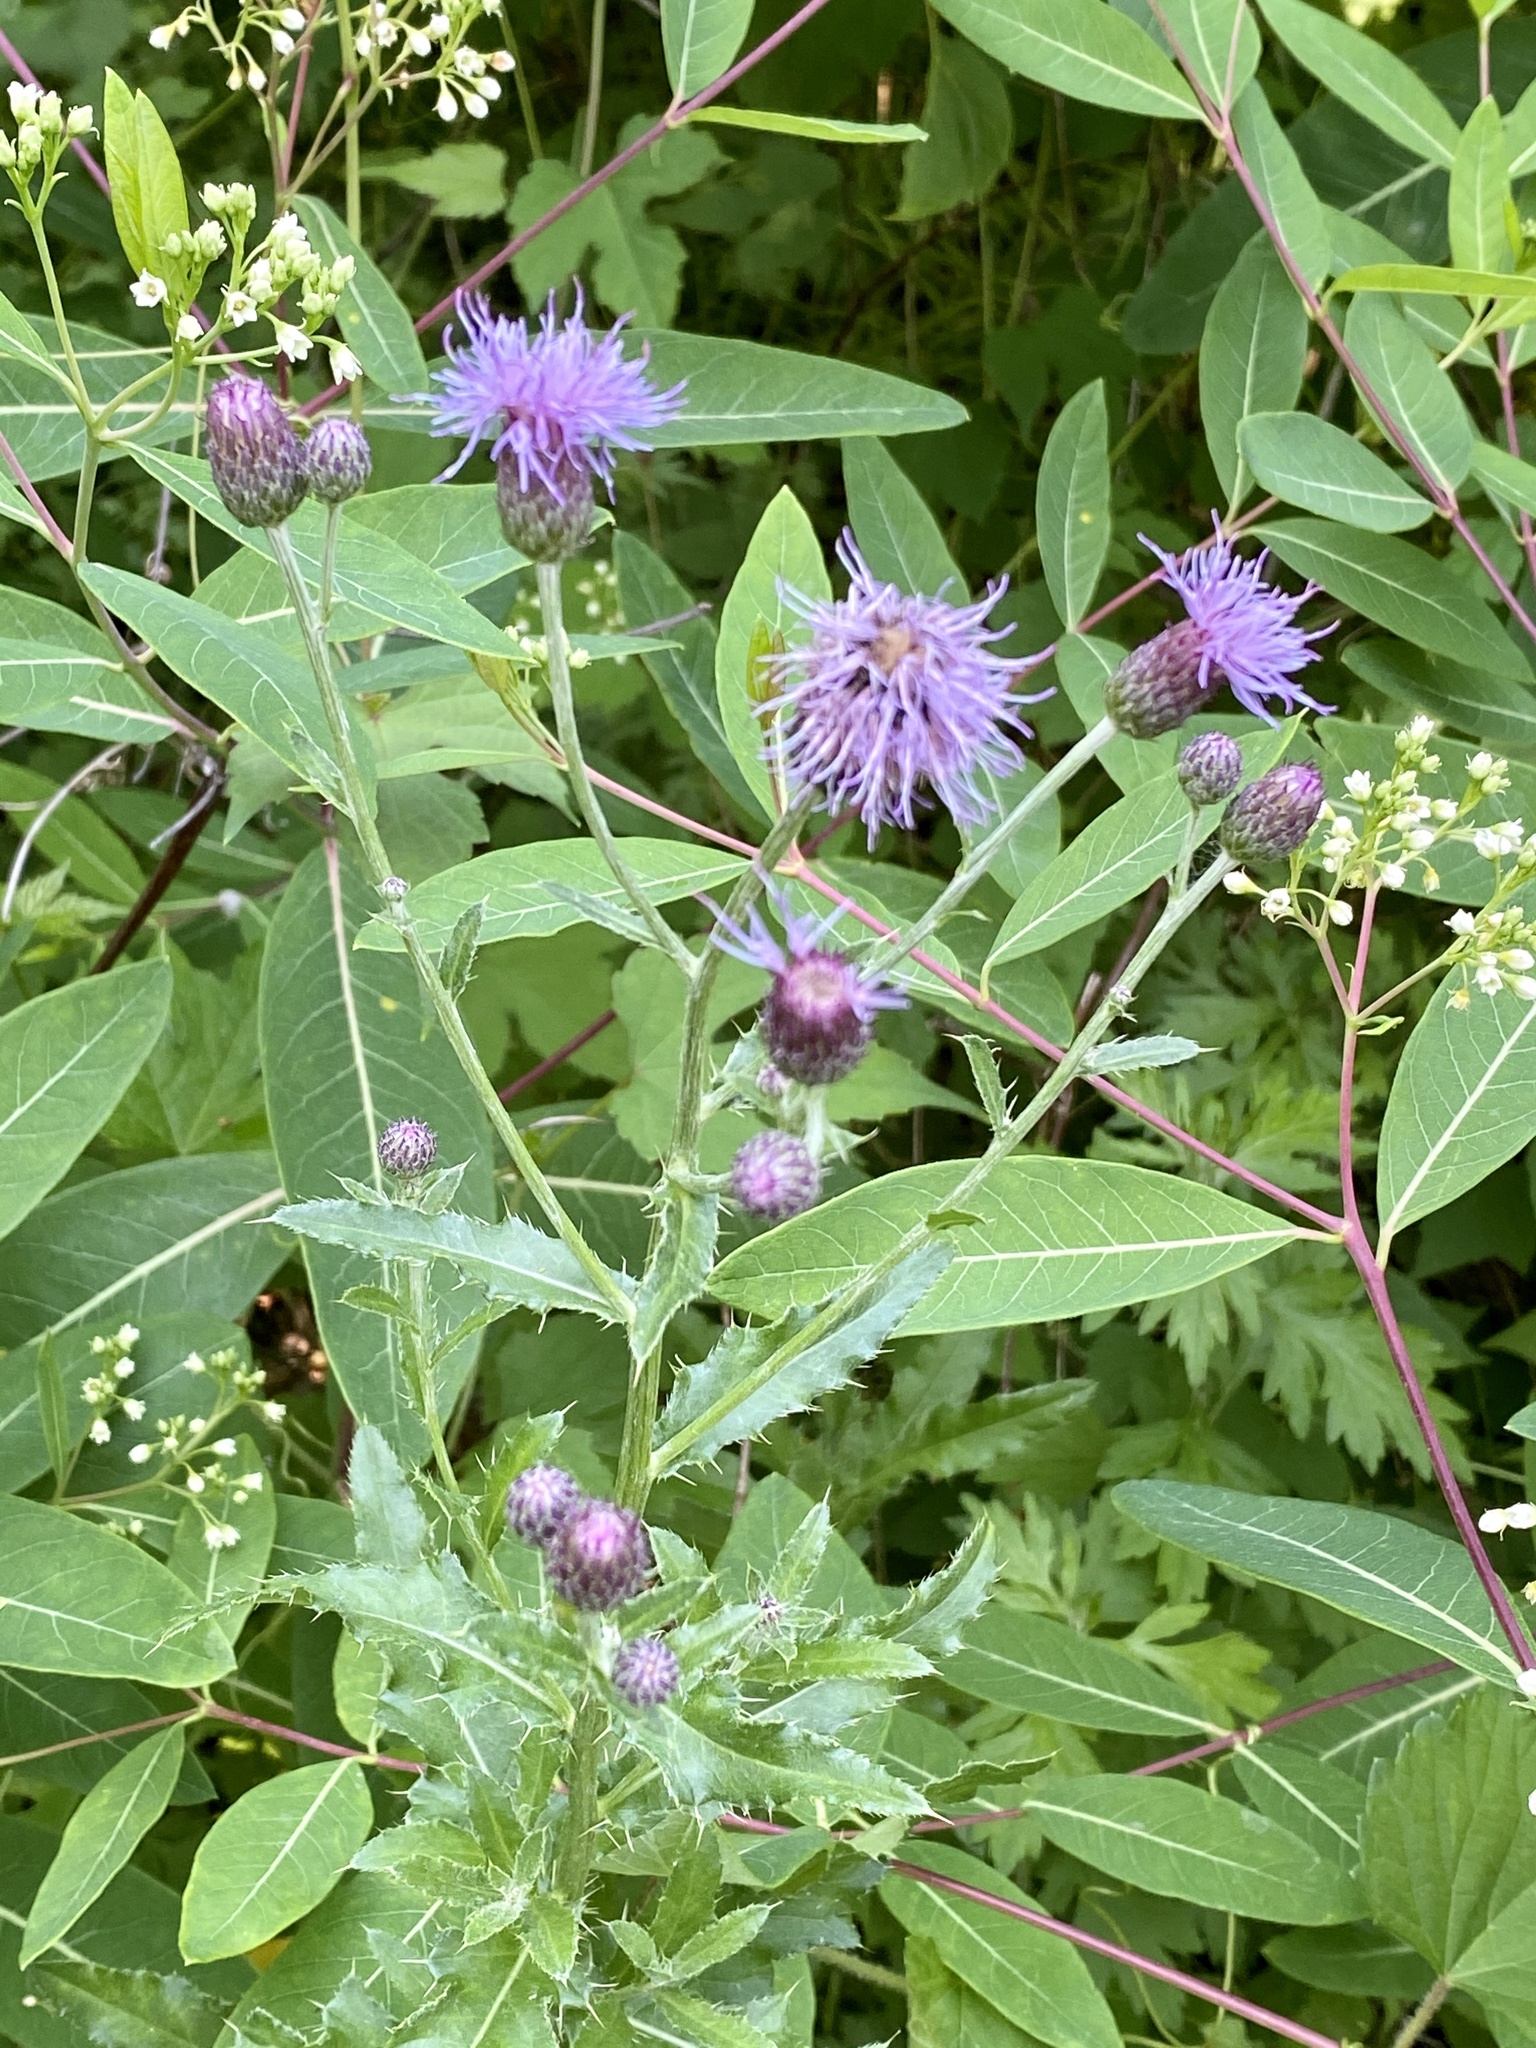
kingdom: Plantae
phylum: Tracheophyta
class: Magnoliopsida
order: Asterales
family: Asteraceae
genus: Cirsium
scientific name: Cirsium arvense
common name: Creeping thistle
